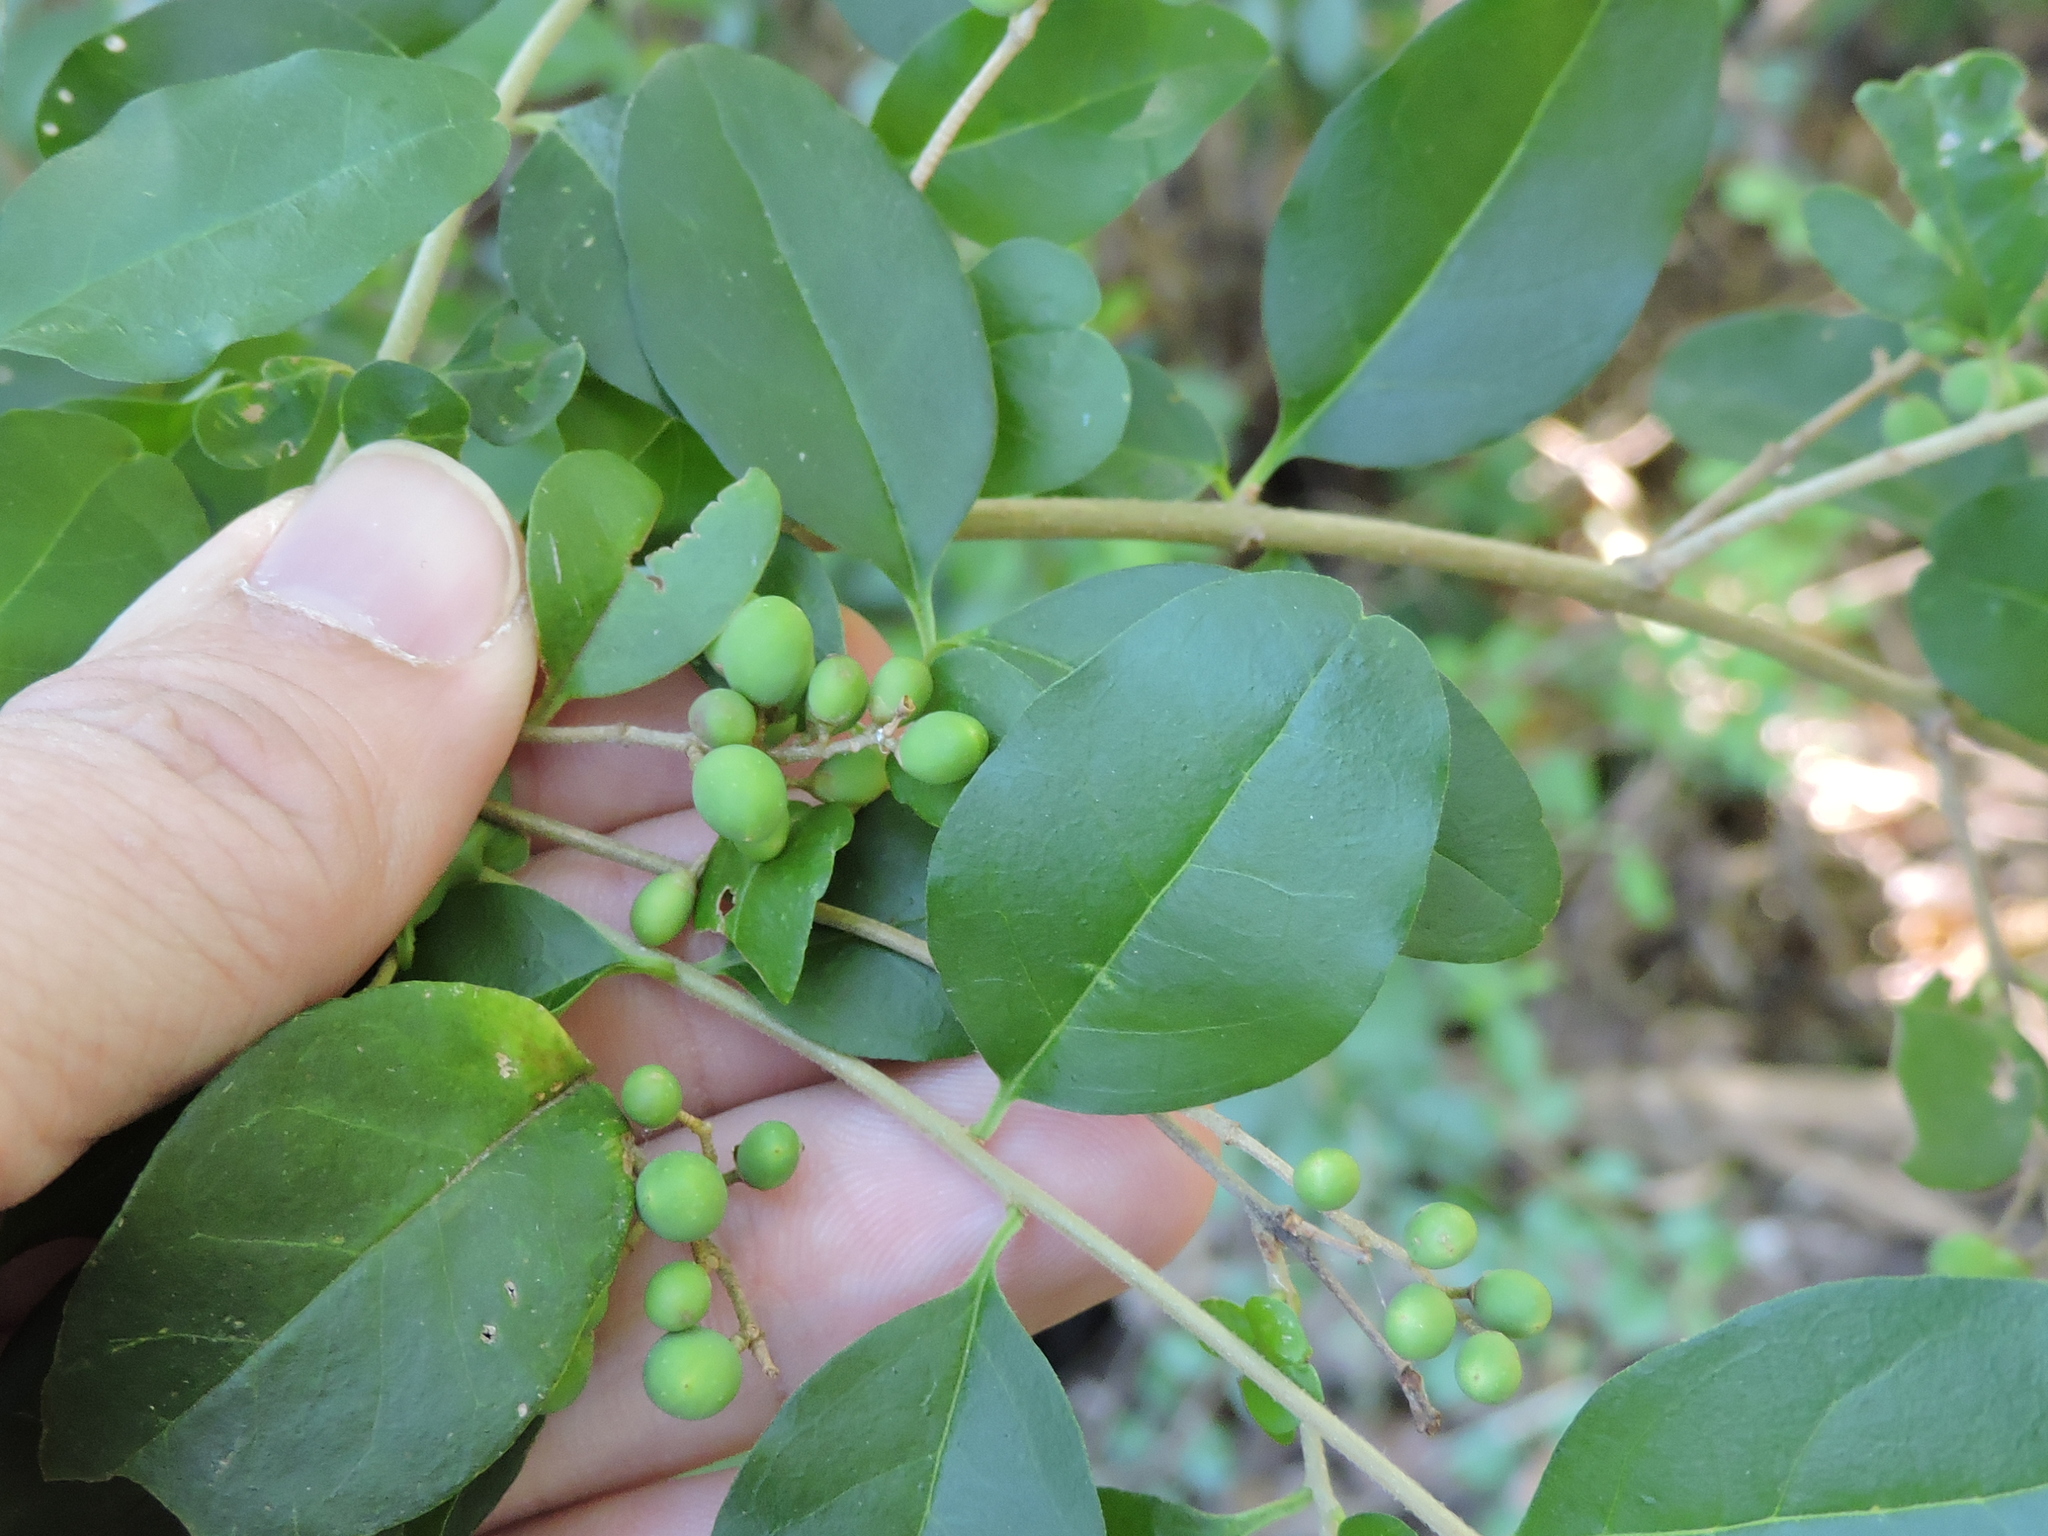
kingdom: Plantae
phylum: Tracheophyta
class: Magnoliopsida
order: Lamiales
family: Oleaceae
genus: Ligustrum
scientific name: Ligustrum sinense
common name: Chinese privet
